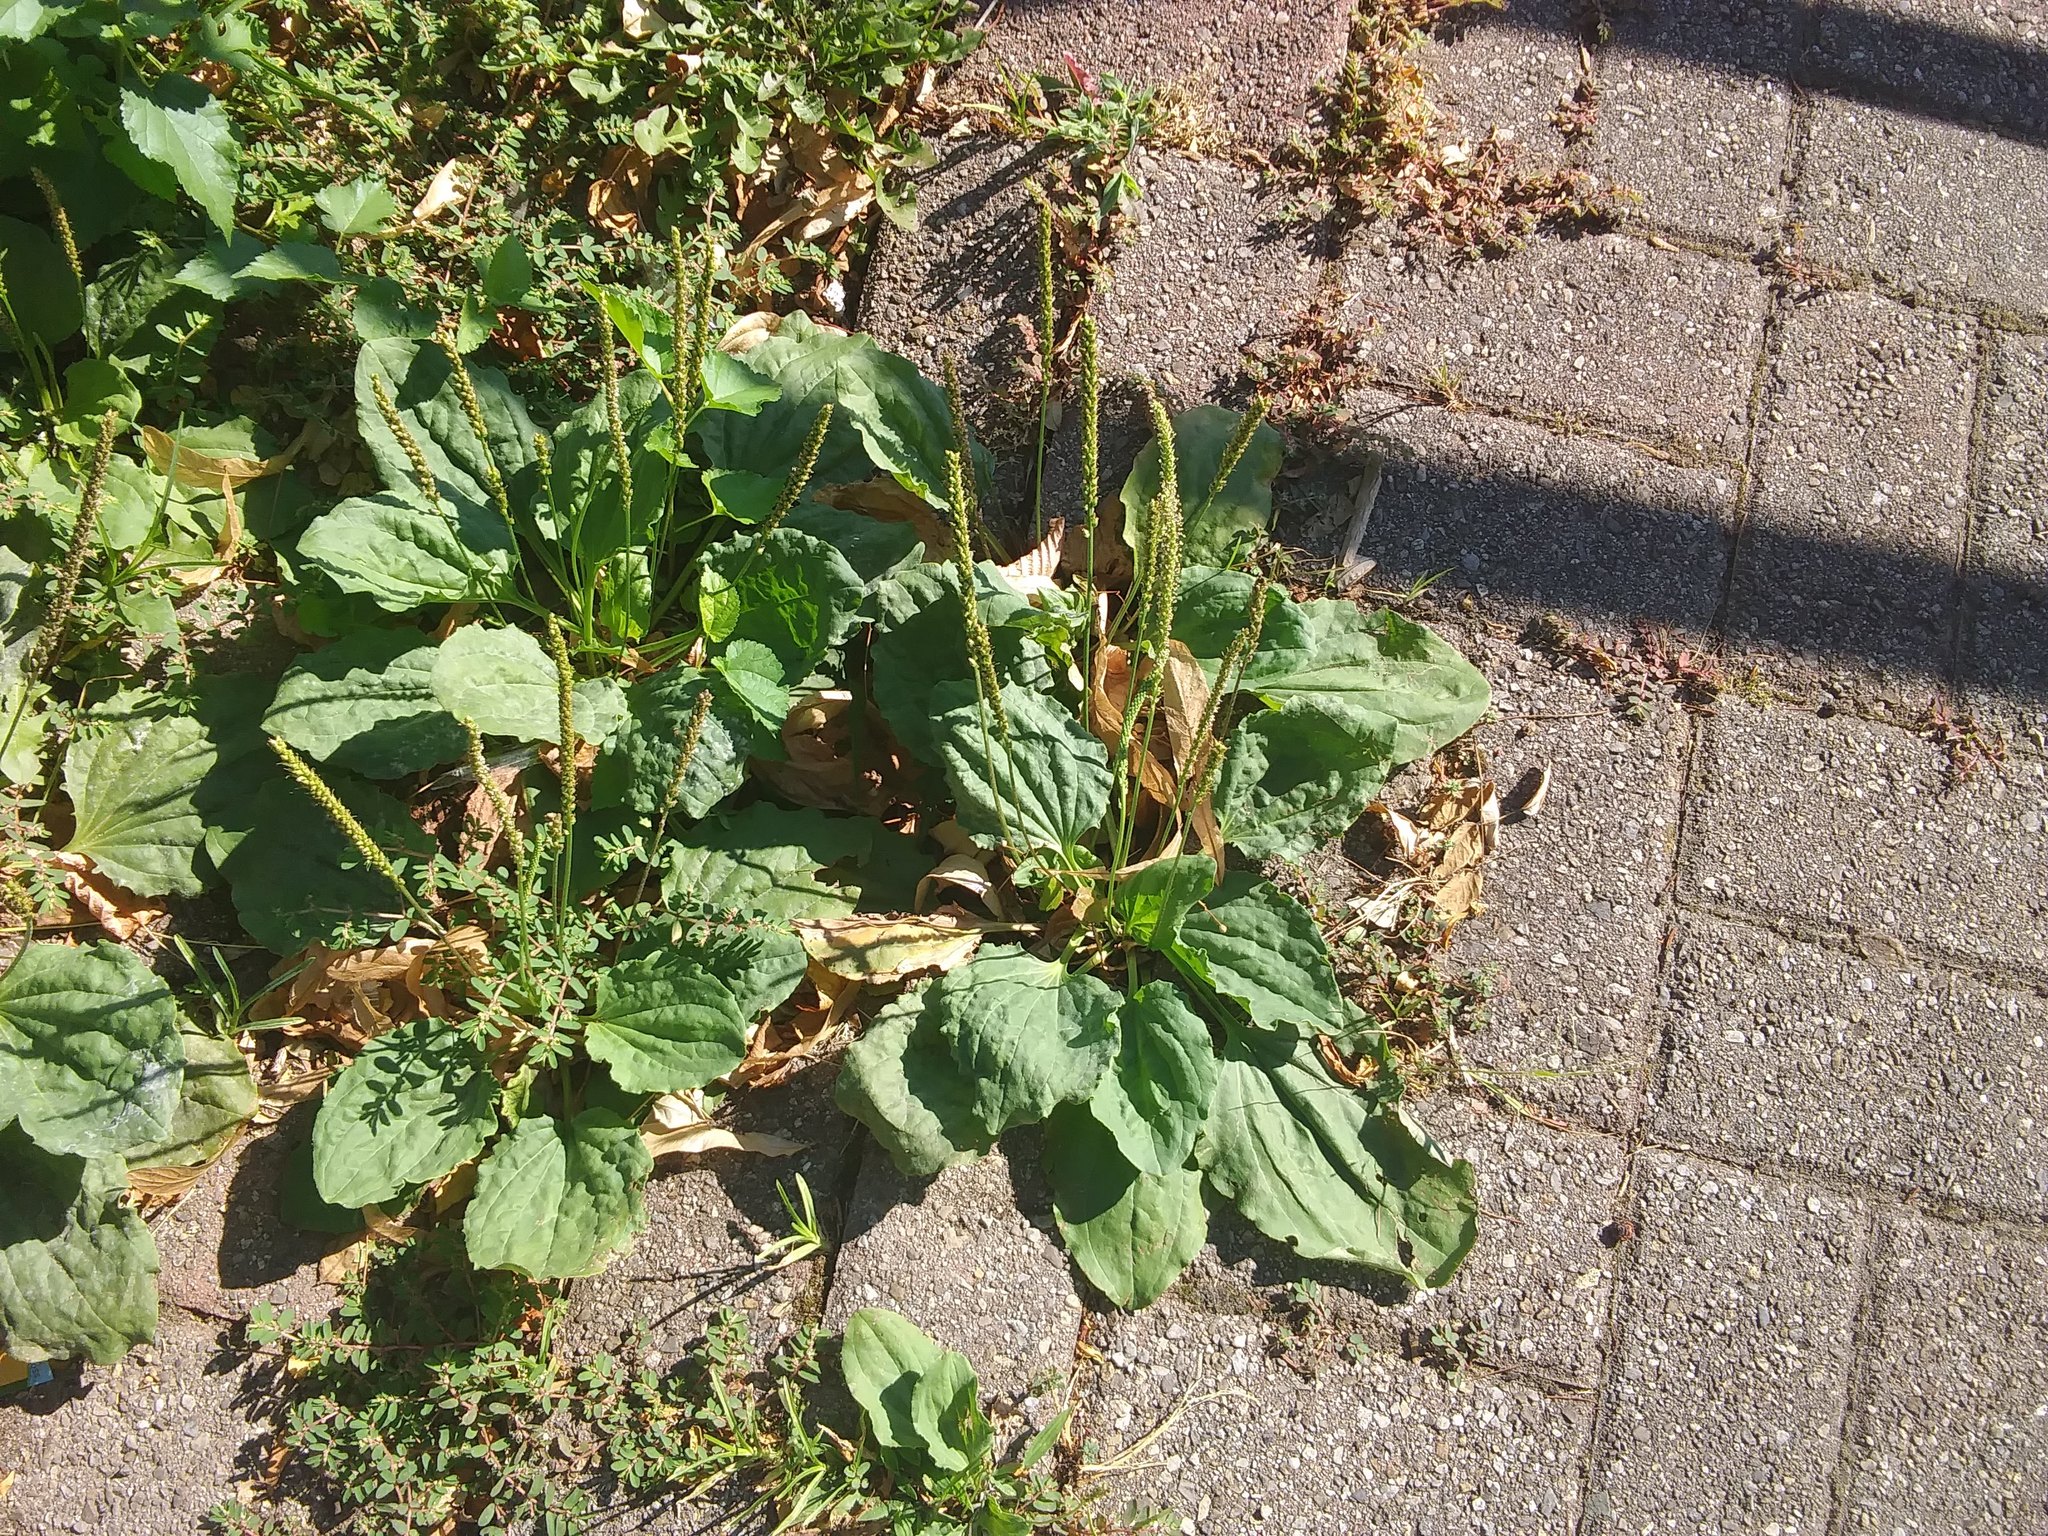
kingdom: Plantae
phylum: Tracheophyta
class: Magnoliopsida
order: Lamiales
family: Plantaginaceae
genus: Plantago
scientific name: Plantago major
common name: Common plantain
